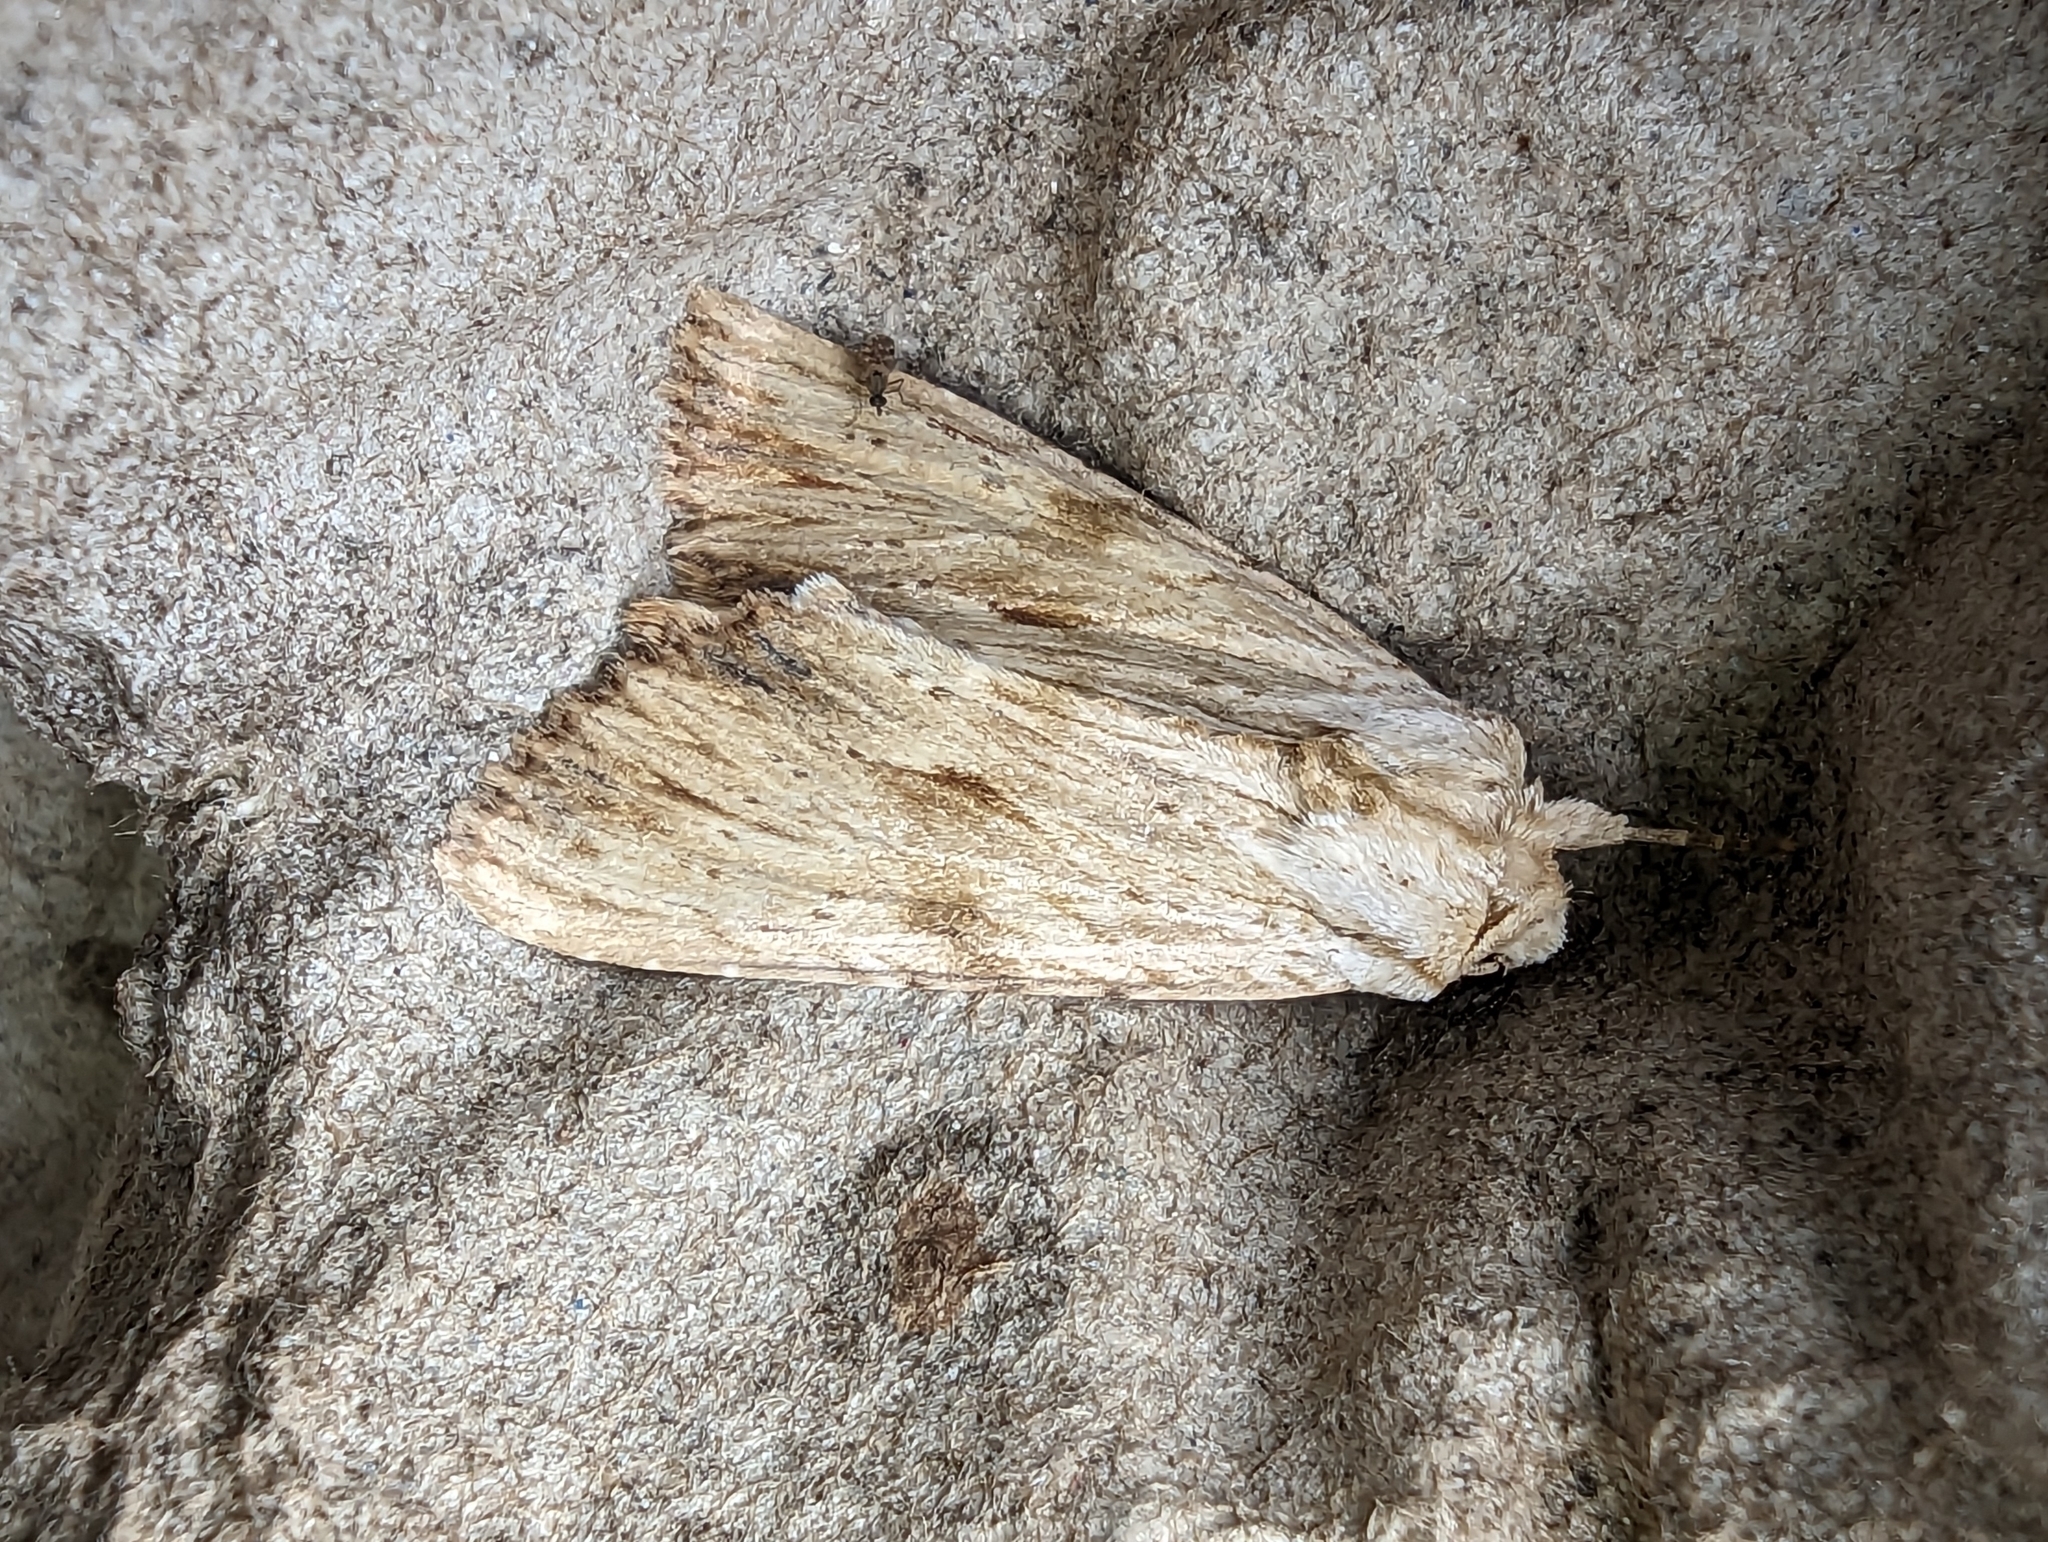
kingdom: Animalia
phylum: Arthropoda
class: Insecta
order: Lepidoptera
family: Noctuidae
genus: Apamea
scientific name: Apamea lithoxylaea
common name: Light arches
